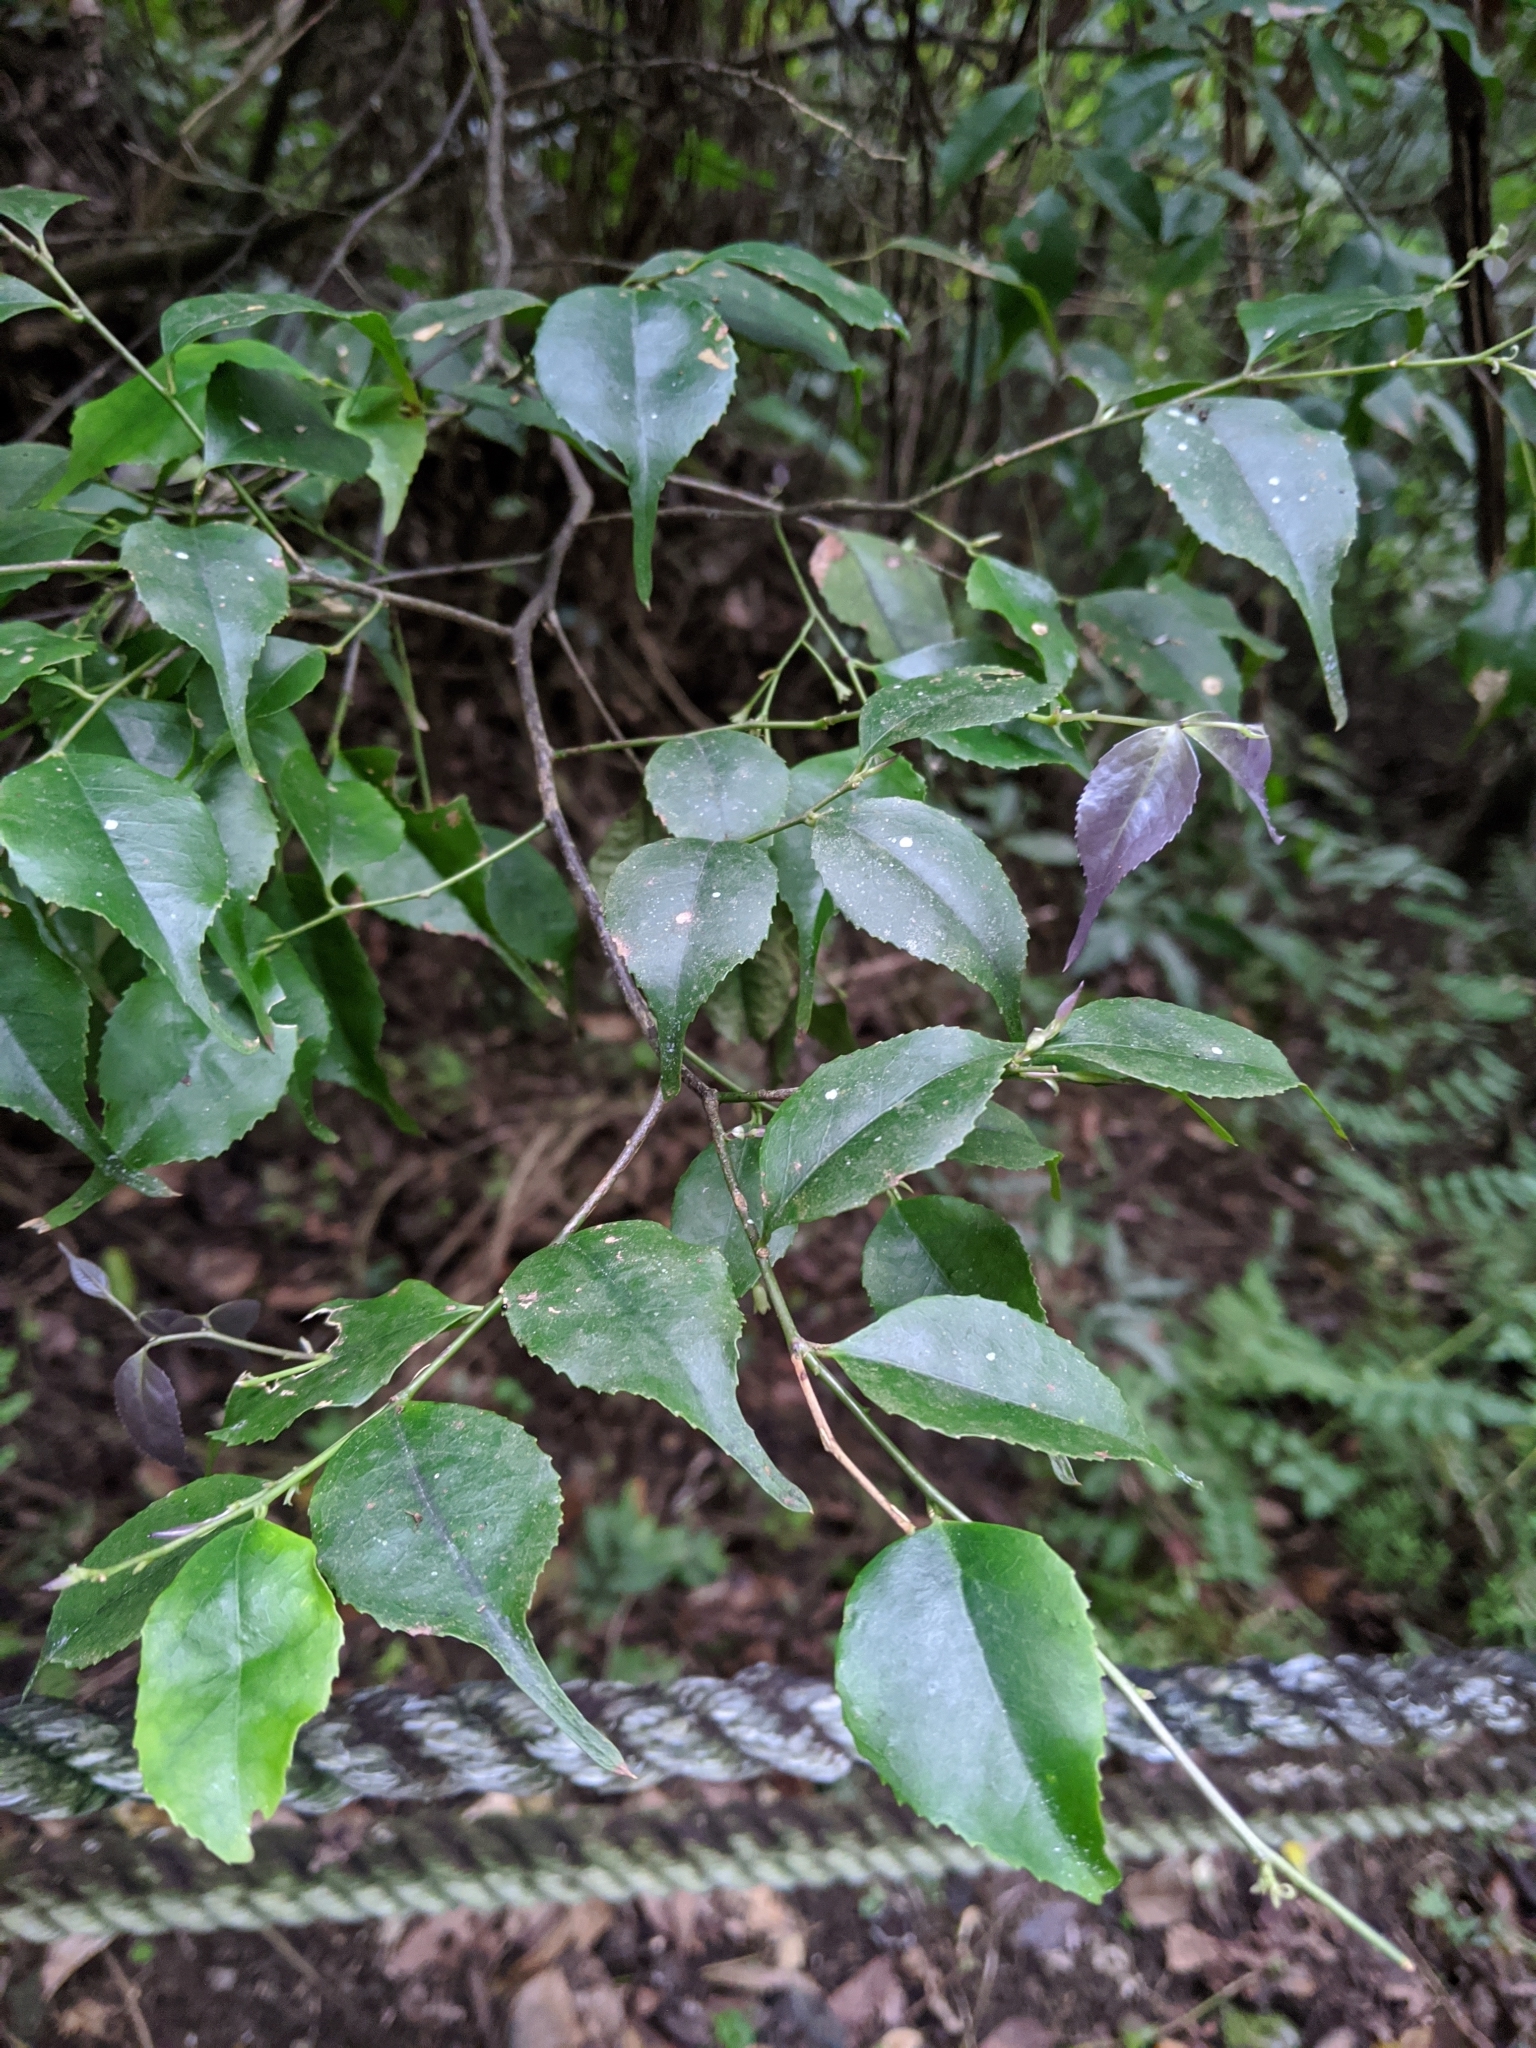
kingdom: Plantae
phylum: Tracheophyta
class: Magnoliopsida
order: Ericales
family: Symplocaceae
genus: Symplocos
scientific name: Symplocos sumuntia
